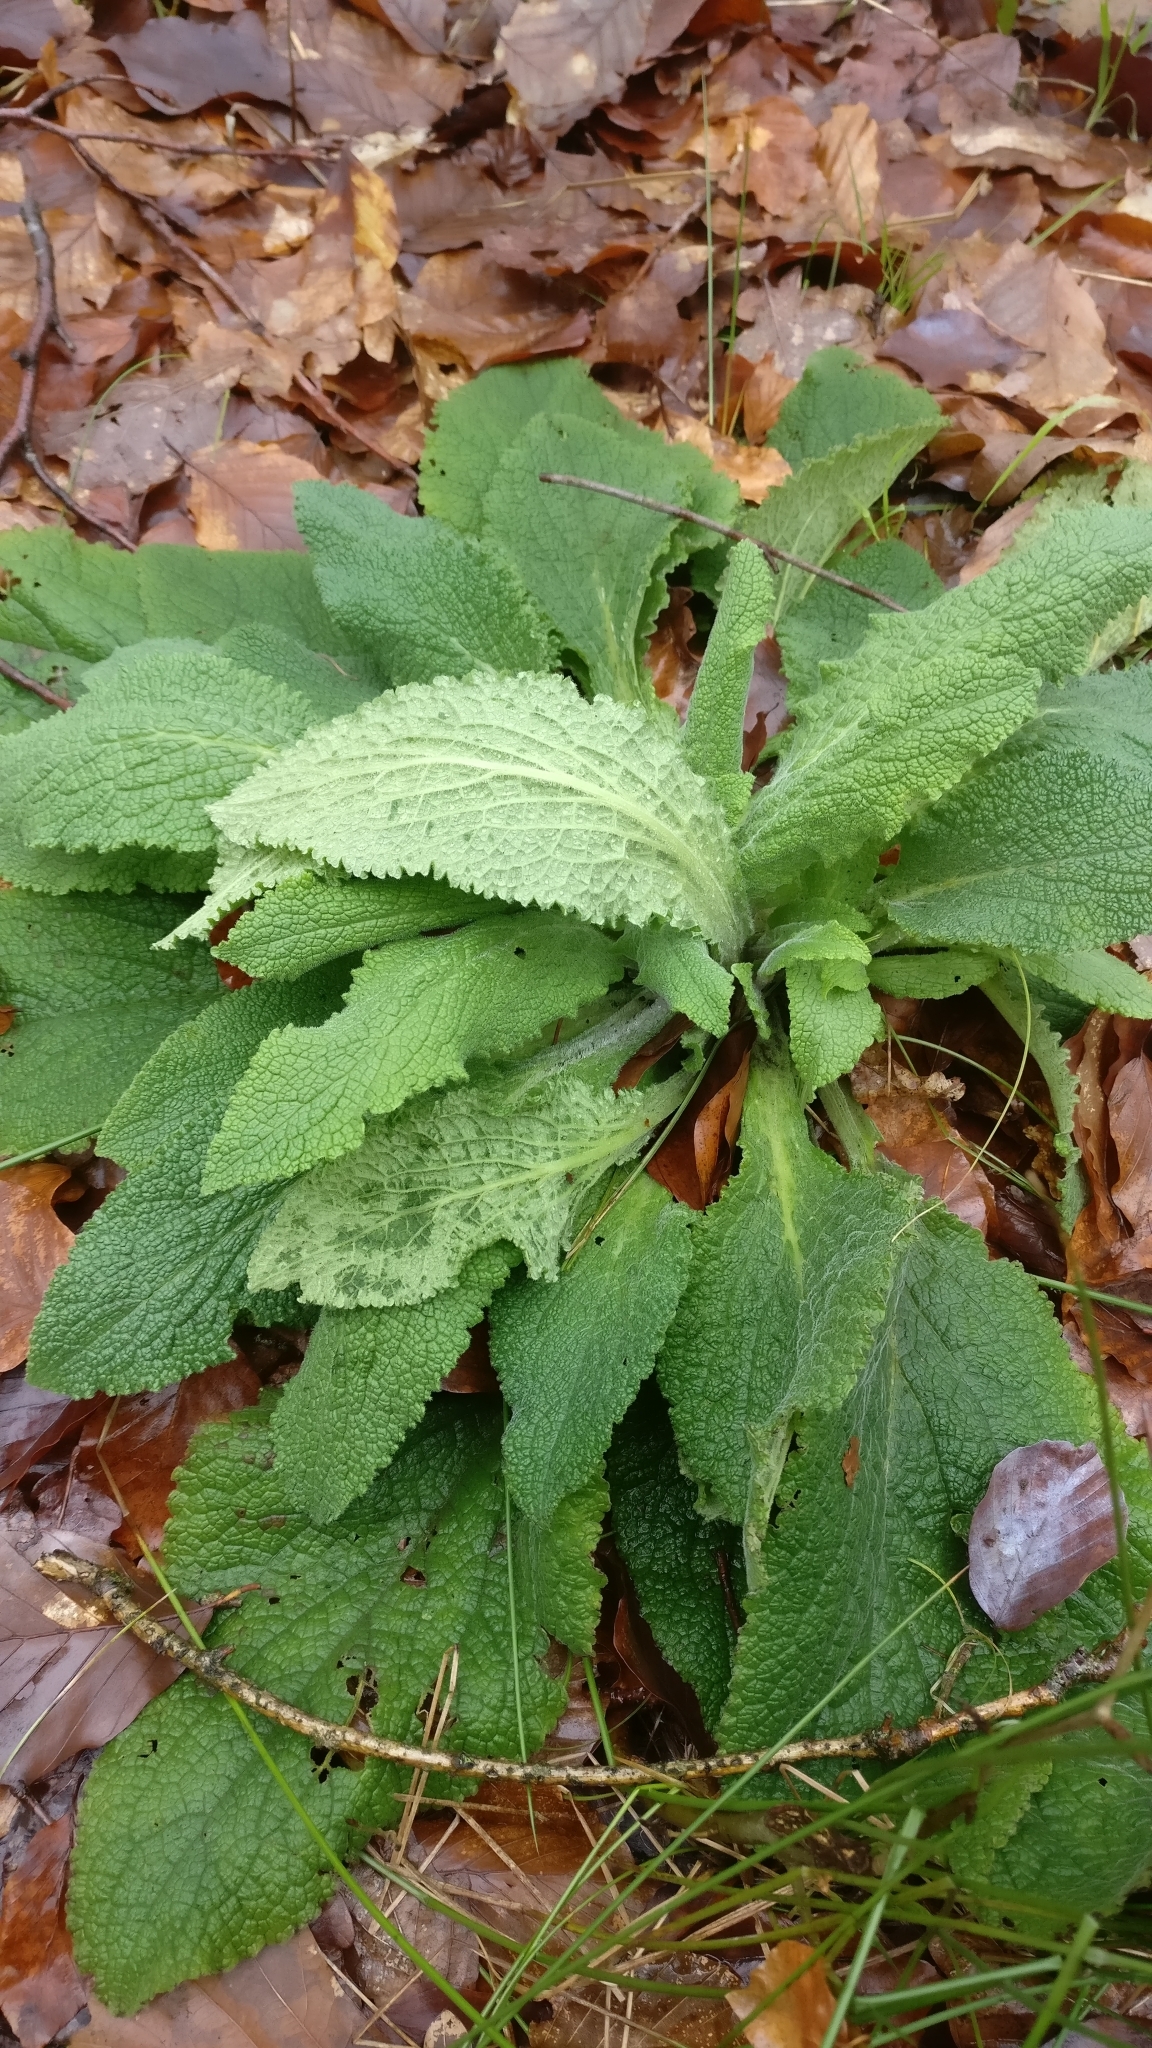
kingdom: Plantae
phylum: Tracheophyta
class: Magnoliopsida
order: Lamiales
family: Plantaginaceae
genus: Digitalis
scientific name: Digitalis purpurea
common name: Foxglove
